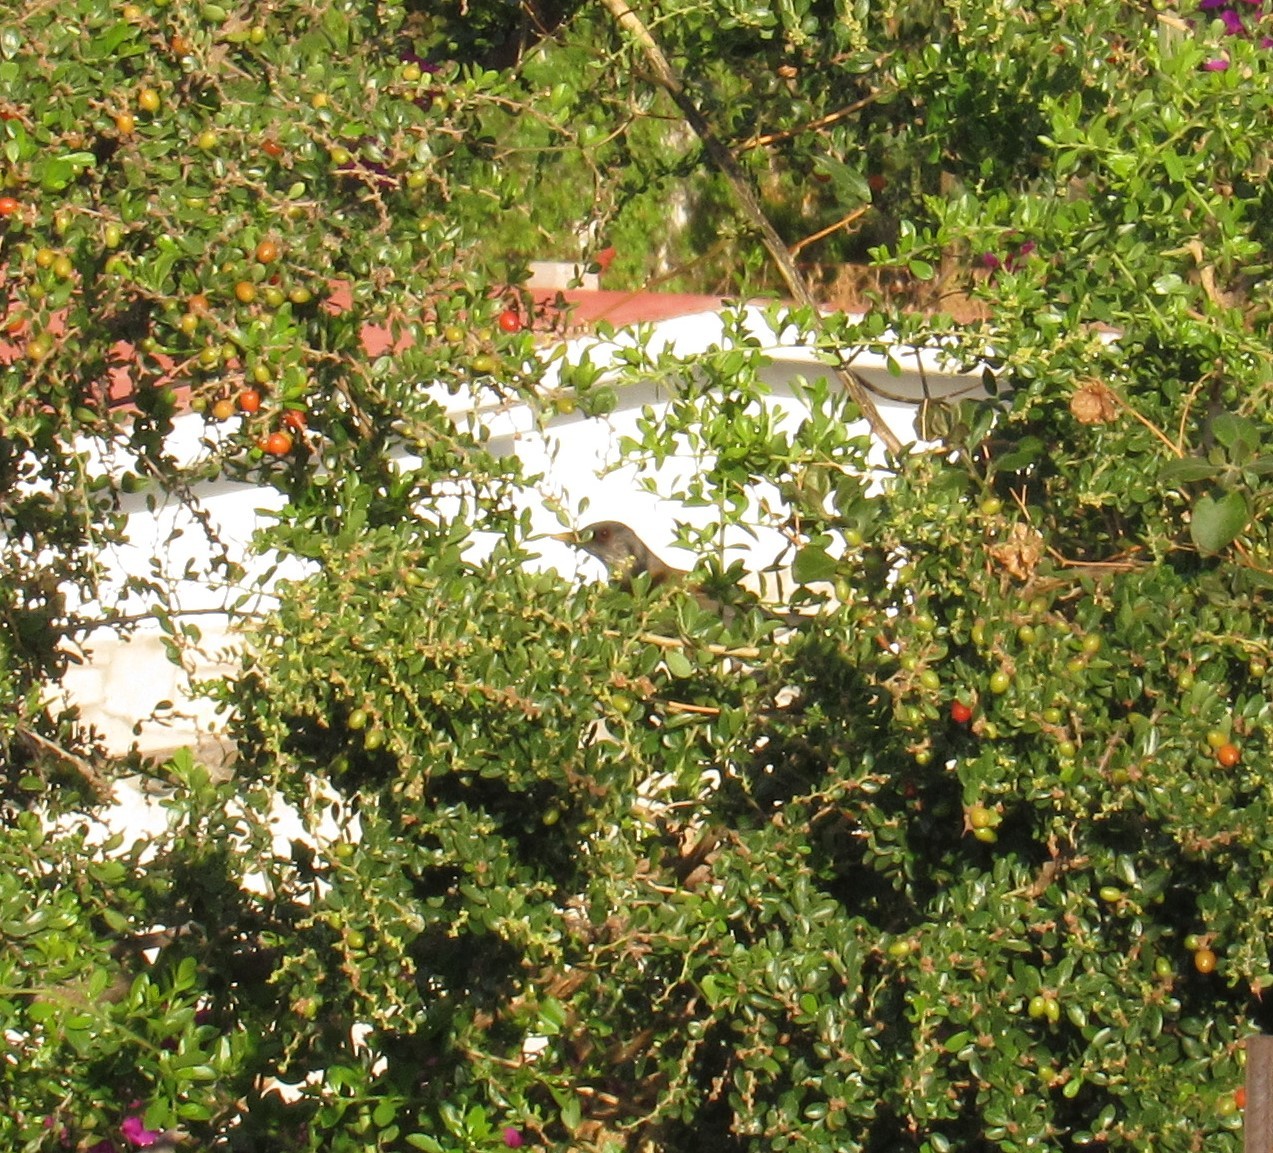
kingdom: Animalia
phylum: Chordata
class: Aves
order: Passeriformes
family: Turdidae
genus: Turdus
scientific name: Turdus rufopalliatus
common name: Rufous-backed robin
